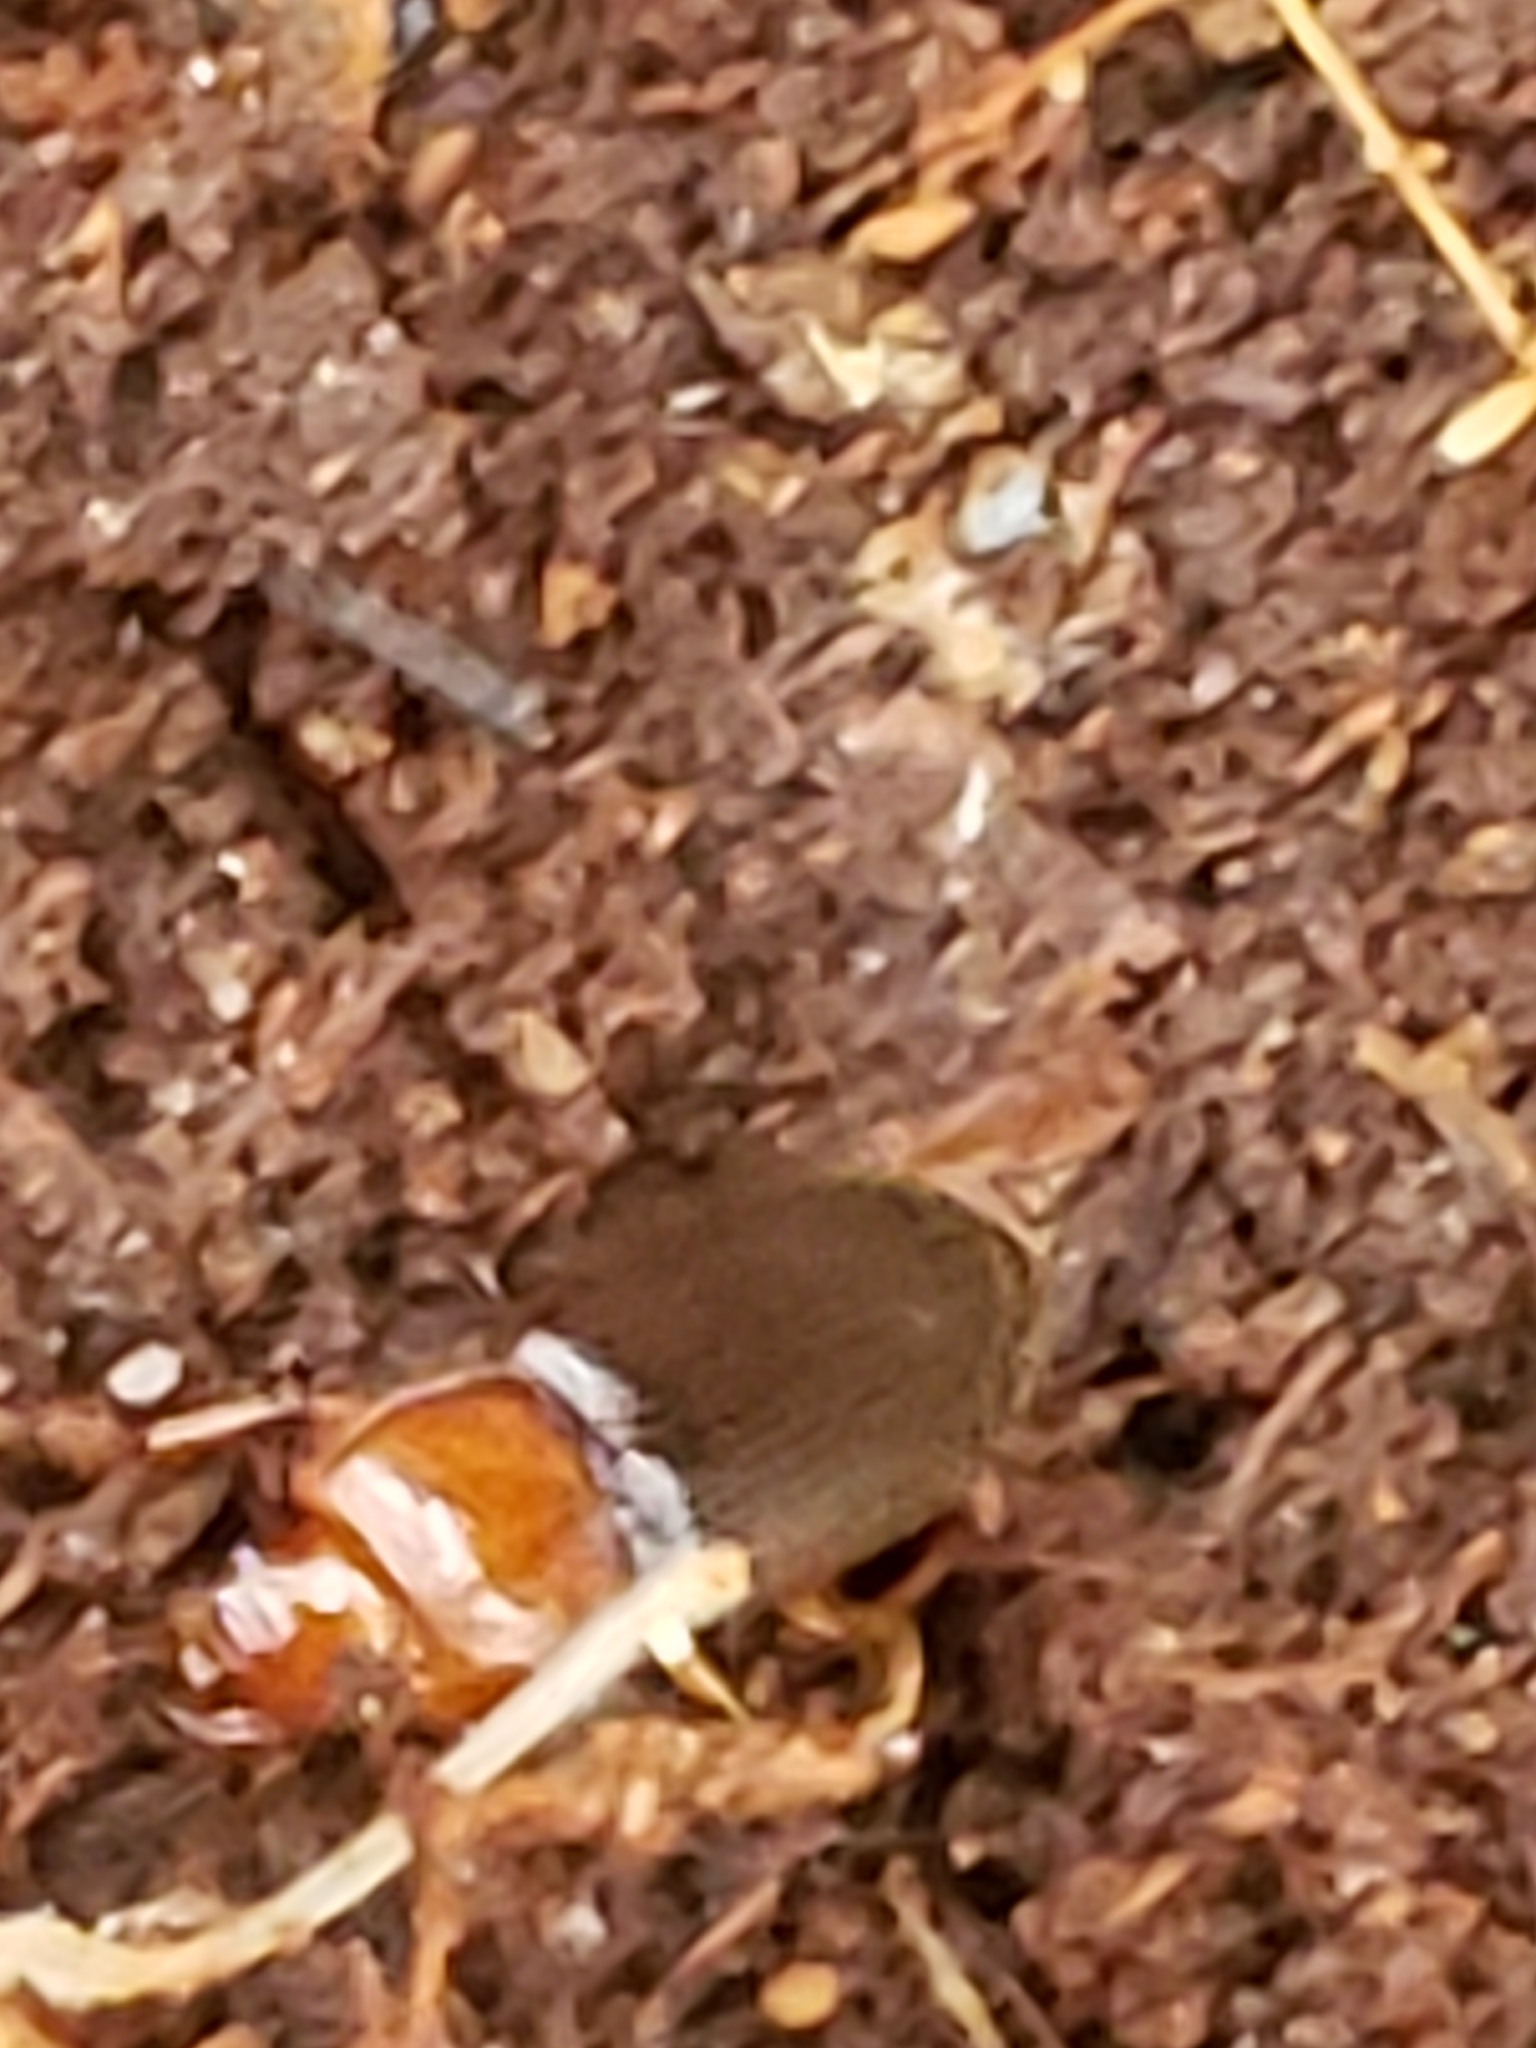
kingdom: Animalia
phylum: Arthropoda
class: Insecta
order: Coleoptera
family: Carabidae
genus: Amphasia
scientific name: Amphasia interstitialis
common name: Red-headed ground beetle
